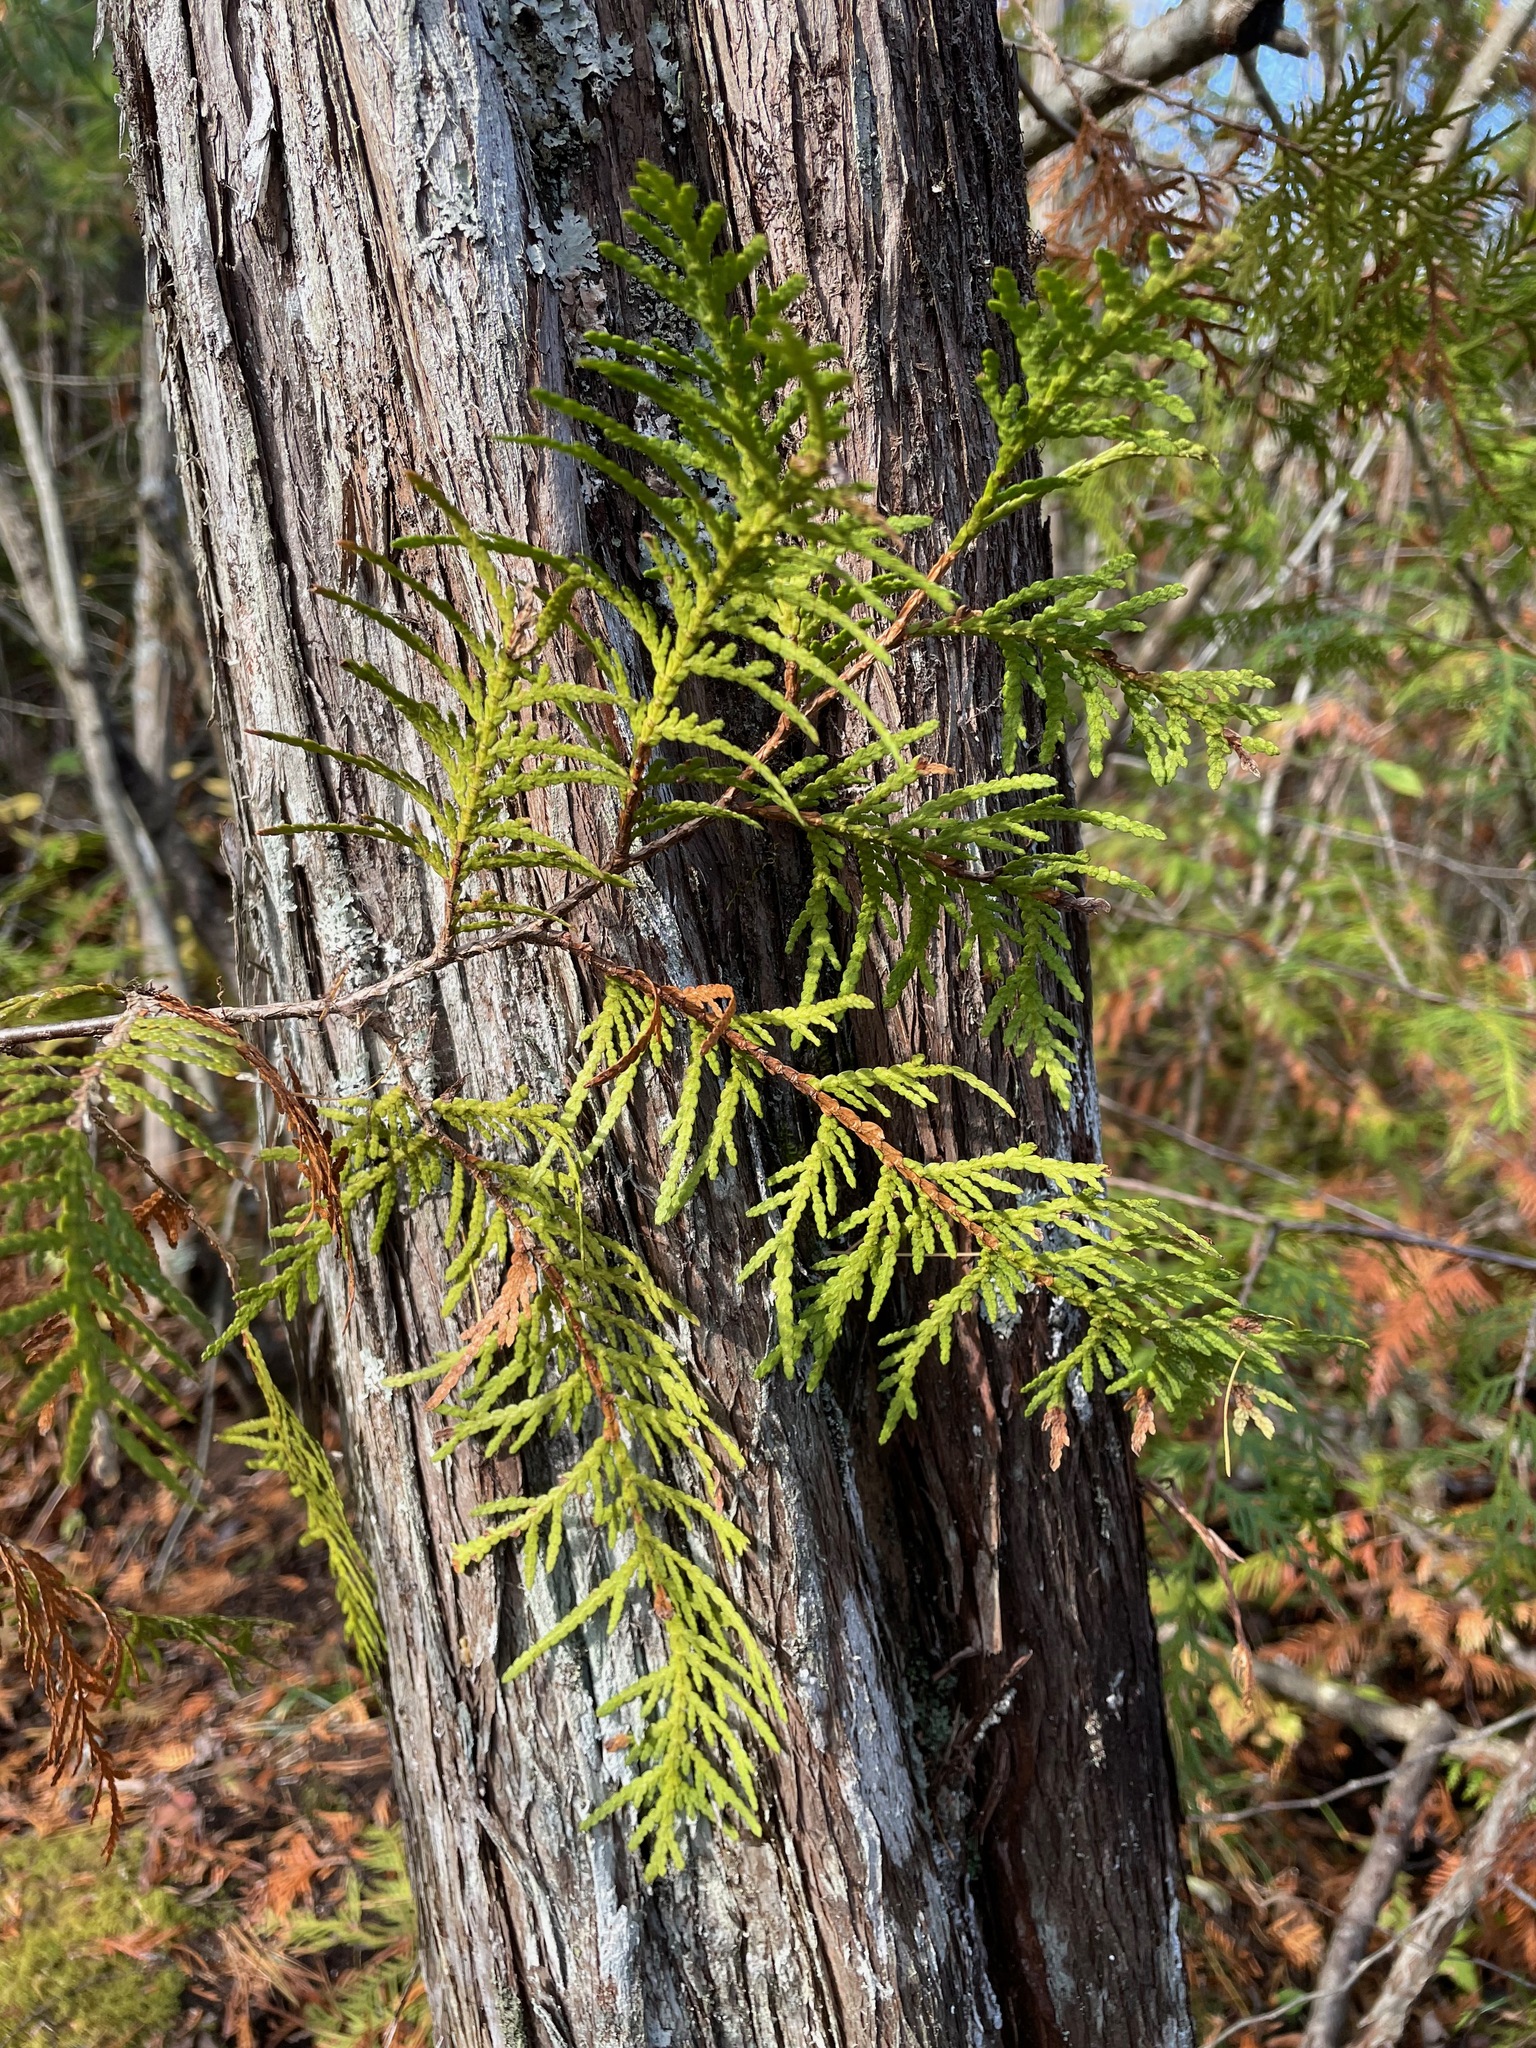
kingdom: Plantae
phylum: Tracheophyta
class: Pinopsida
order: Pinales
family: Cupressaceae
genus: Thuja
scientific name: Thuja occidentalis
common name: Northern white-cedar
